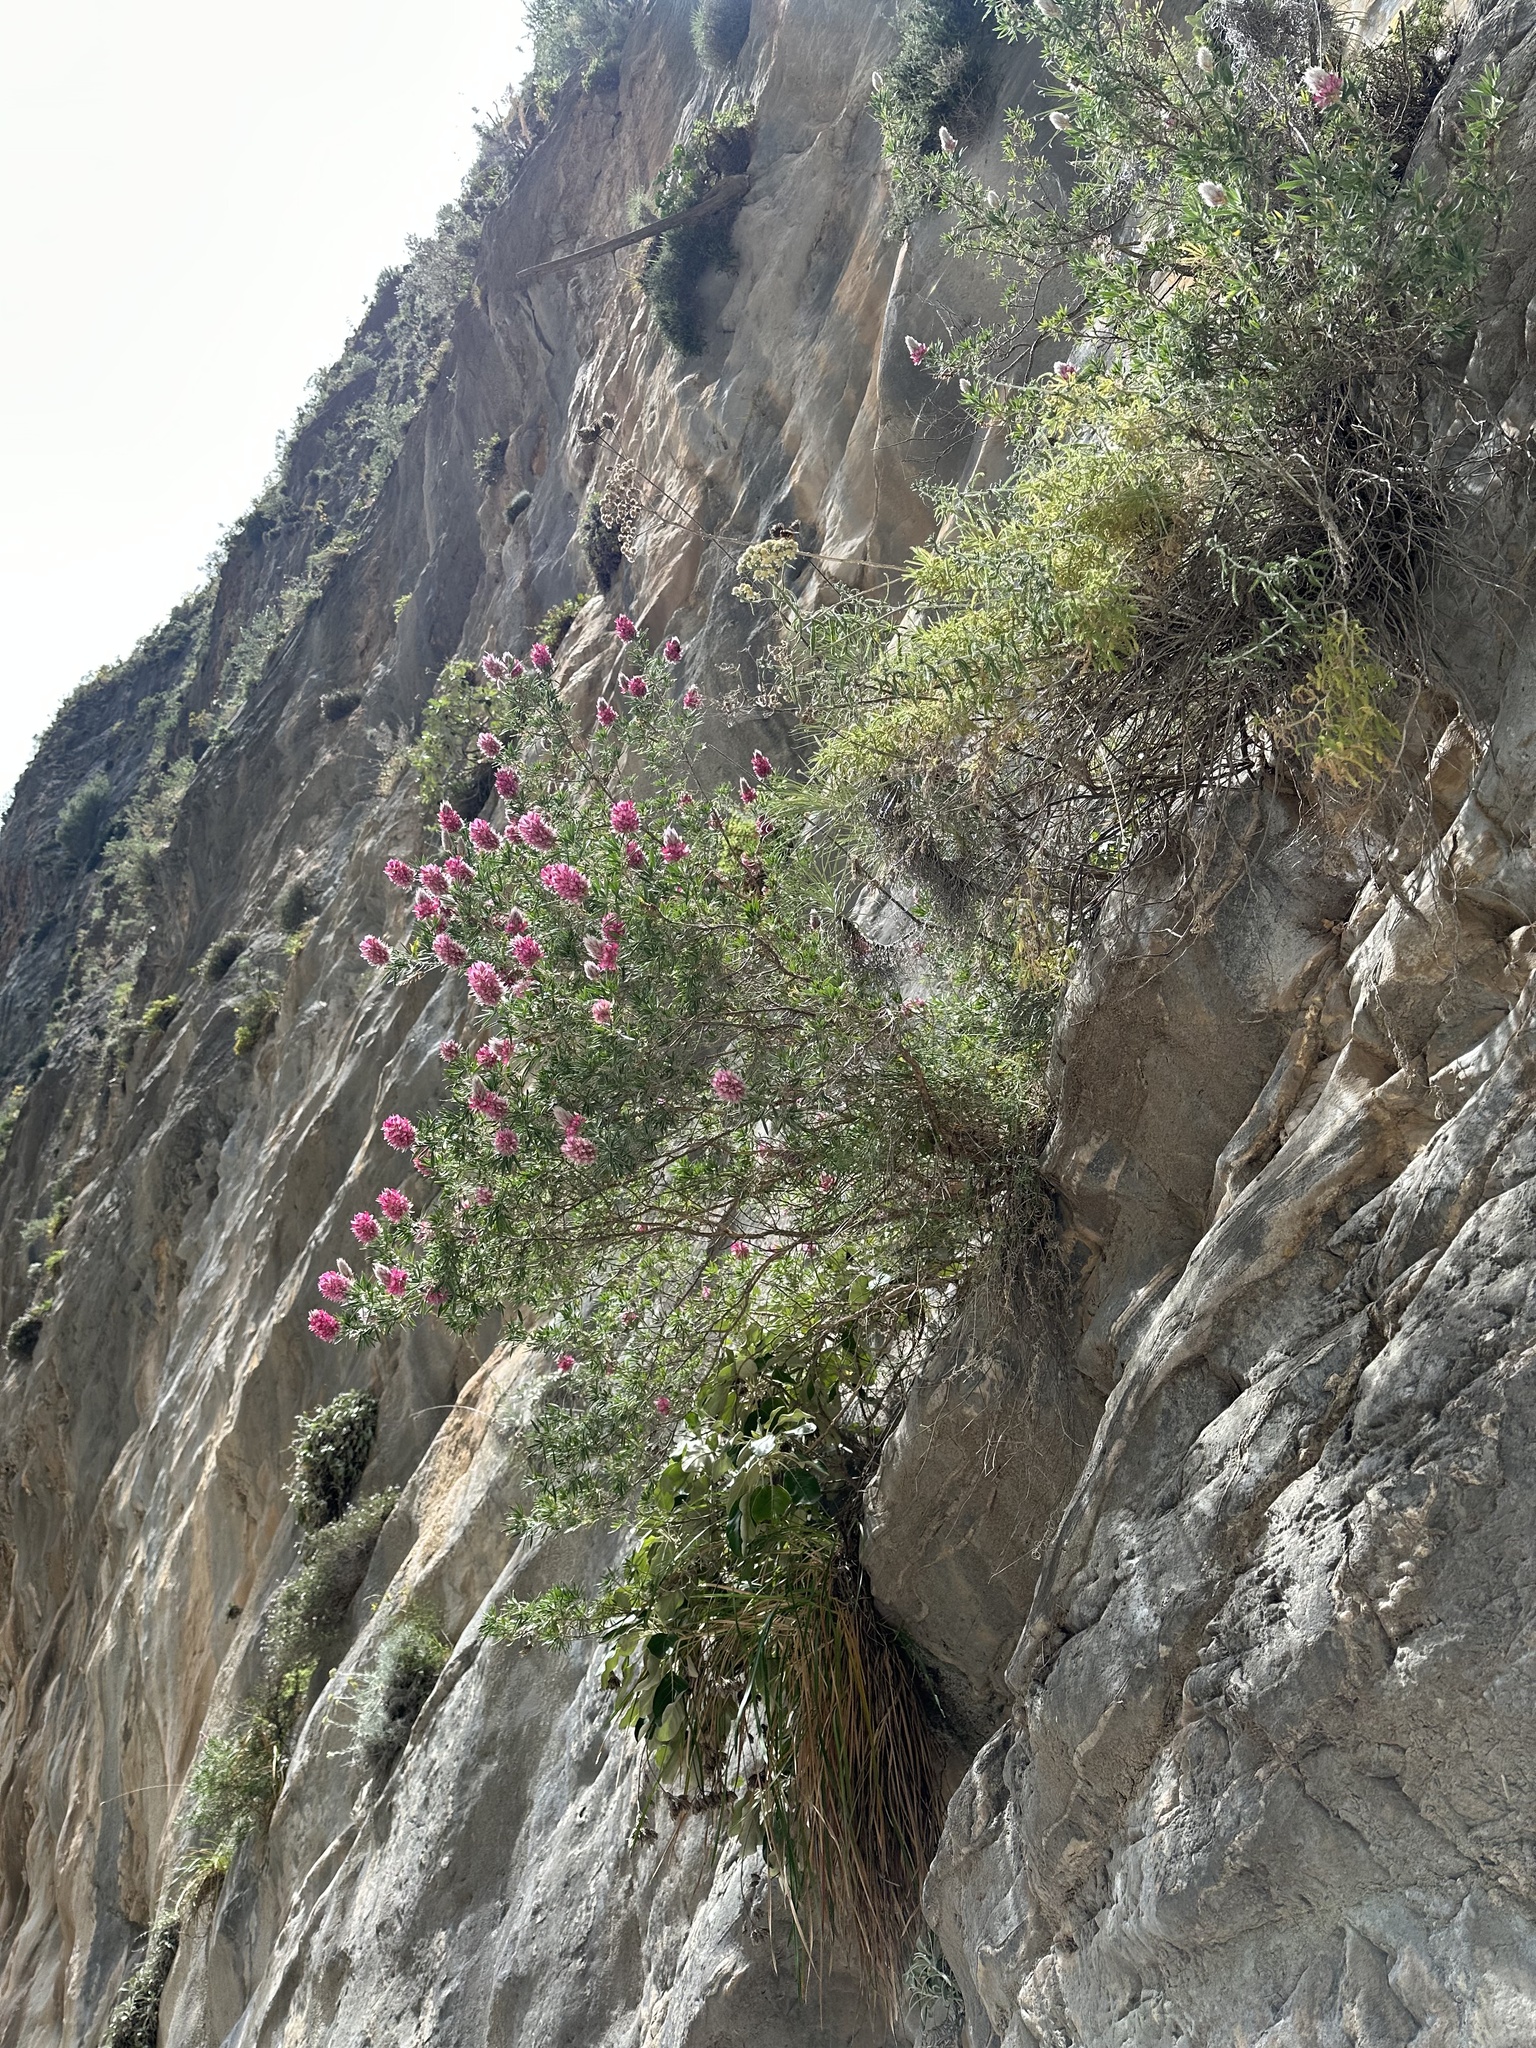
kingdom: Plantae
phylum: Tracheophyta
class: Magnoliopsida
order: Fabales
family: Fabaceae
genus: Ebenus
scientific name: Ebenus cretica
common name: Cretan silver bush
